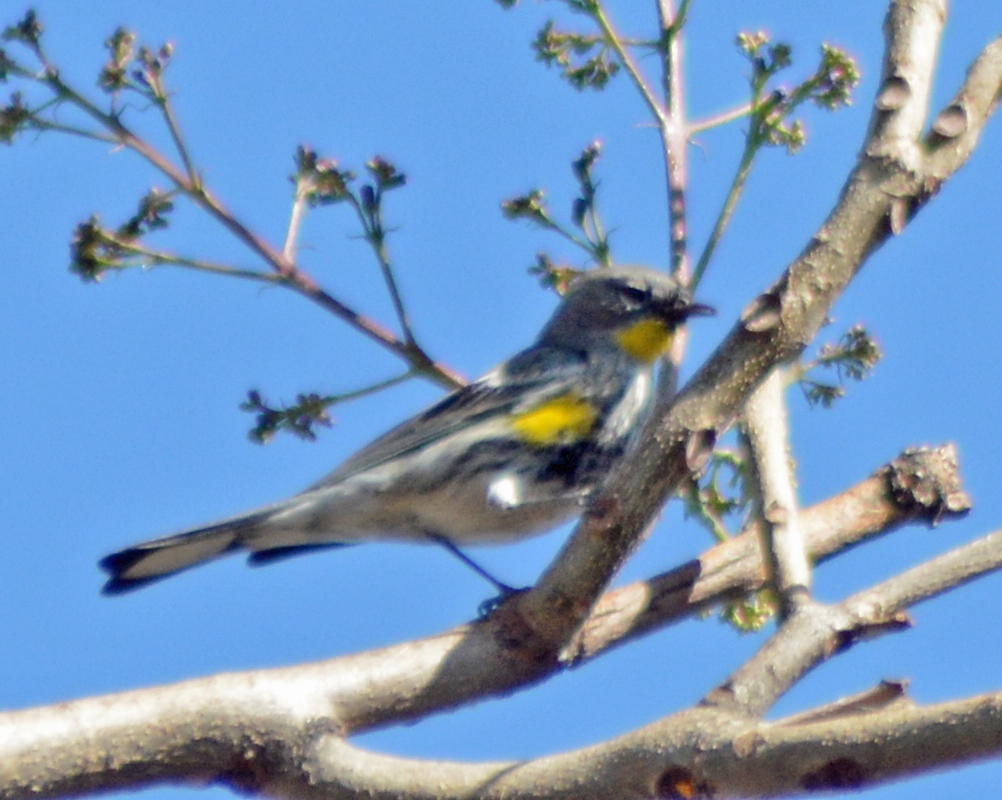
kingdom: Animalia
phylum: Chordata
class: Aves
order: Passeriformes
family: Parulidae
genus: Setophaga
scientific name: Setophaga coronata
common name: Myrtle warbler
